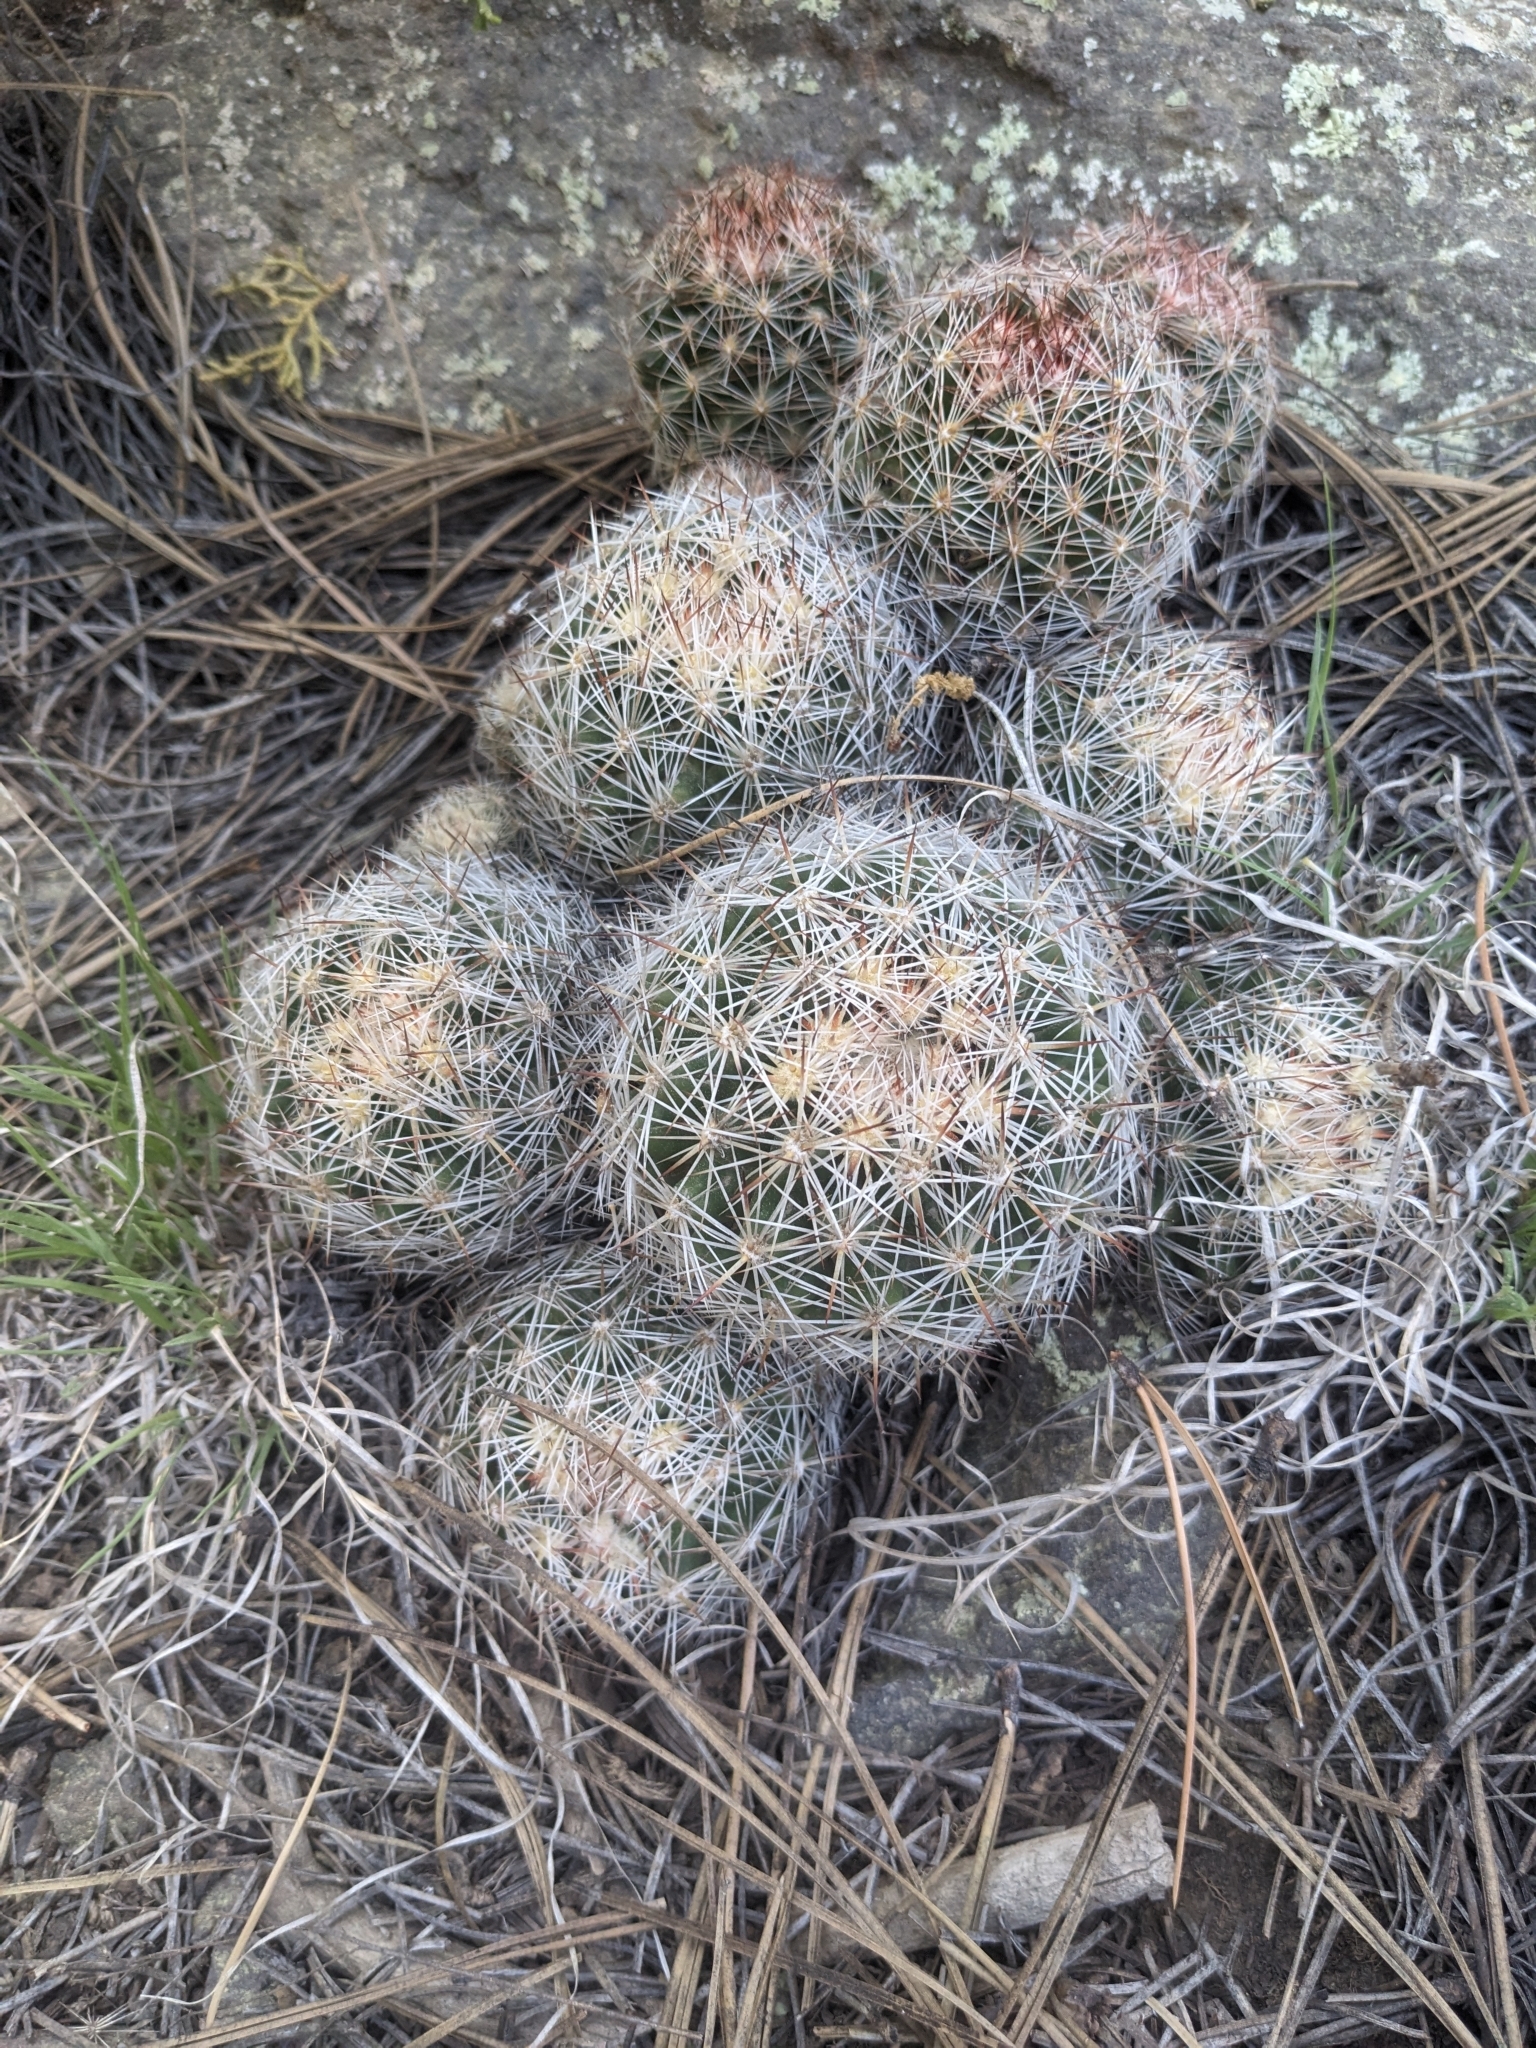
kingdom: Plantae
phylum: Tracheophyta
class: Magnoliopsida
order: Caryophyllales
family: Cactaceae
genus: Pelecyphora
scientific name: Pelecyphora vivipara
